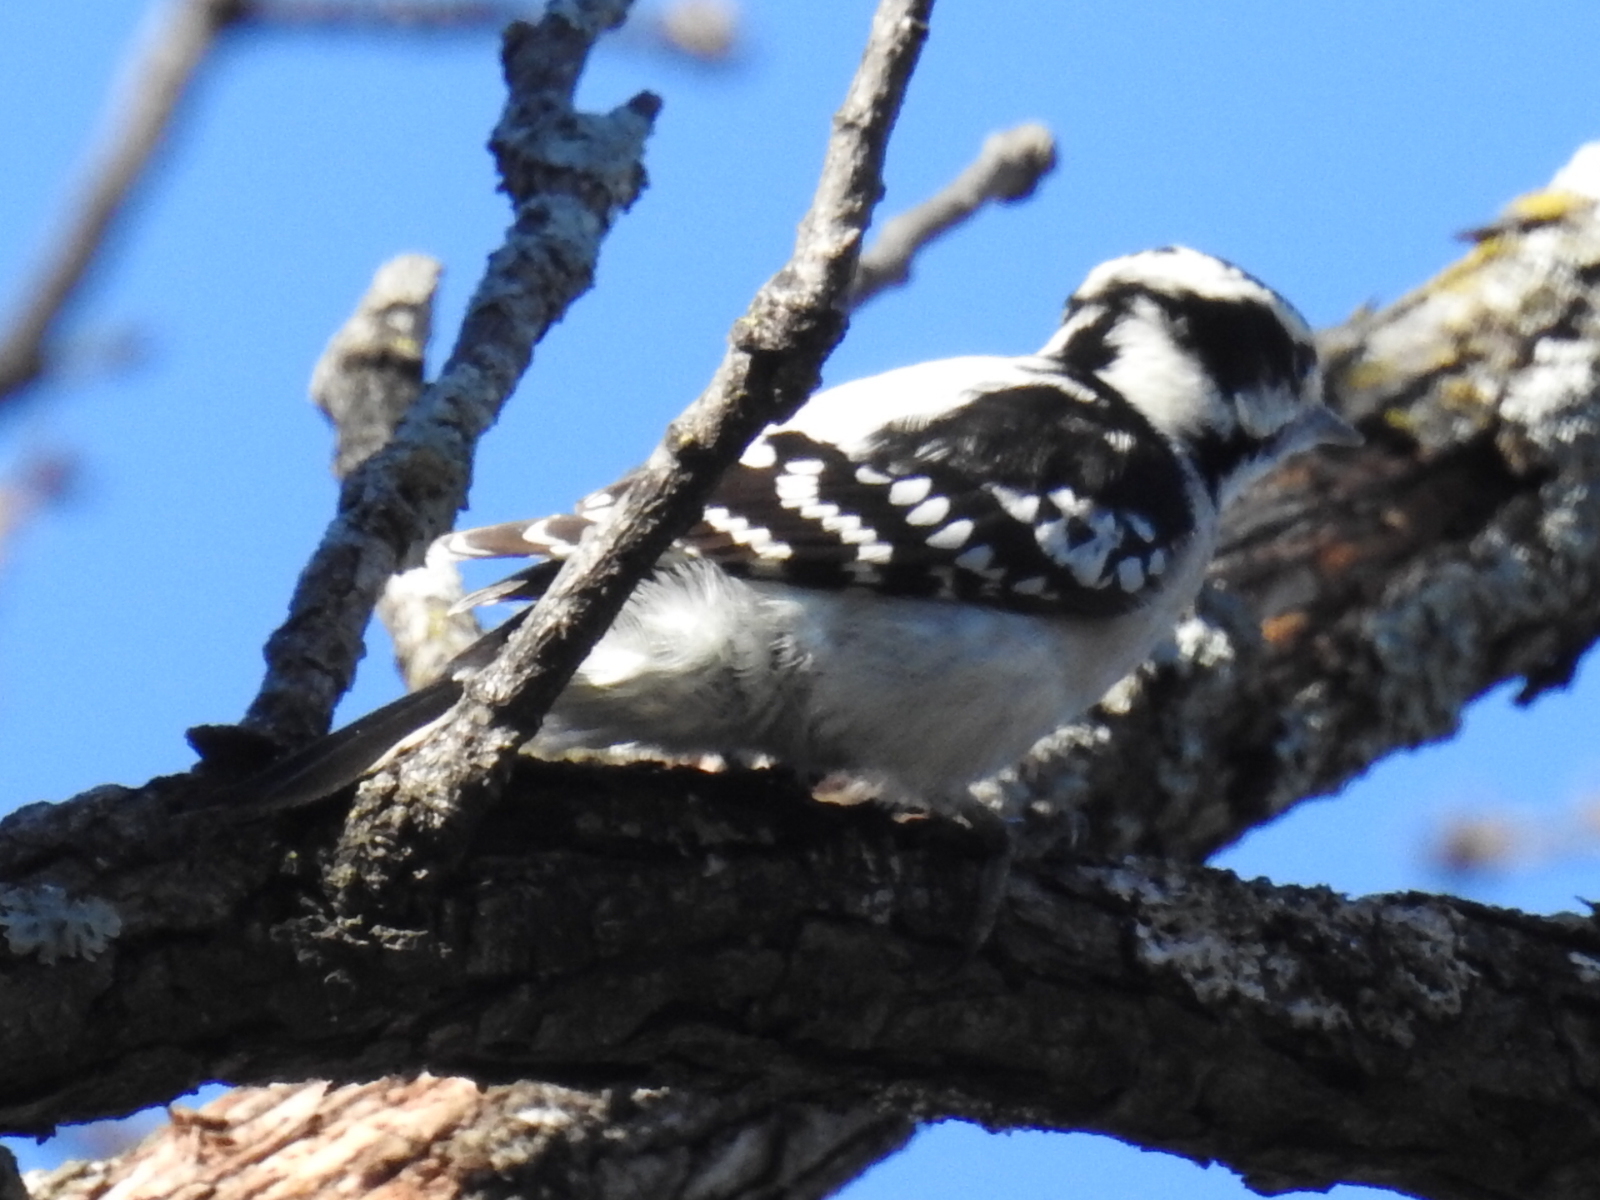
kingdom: Animalia
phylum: Chordata
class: Aves
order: Piciformes
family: Picidae
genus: Dryobates
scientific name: Dryobates pubescens
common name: Downy woodpecker
